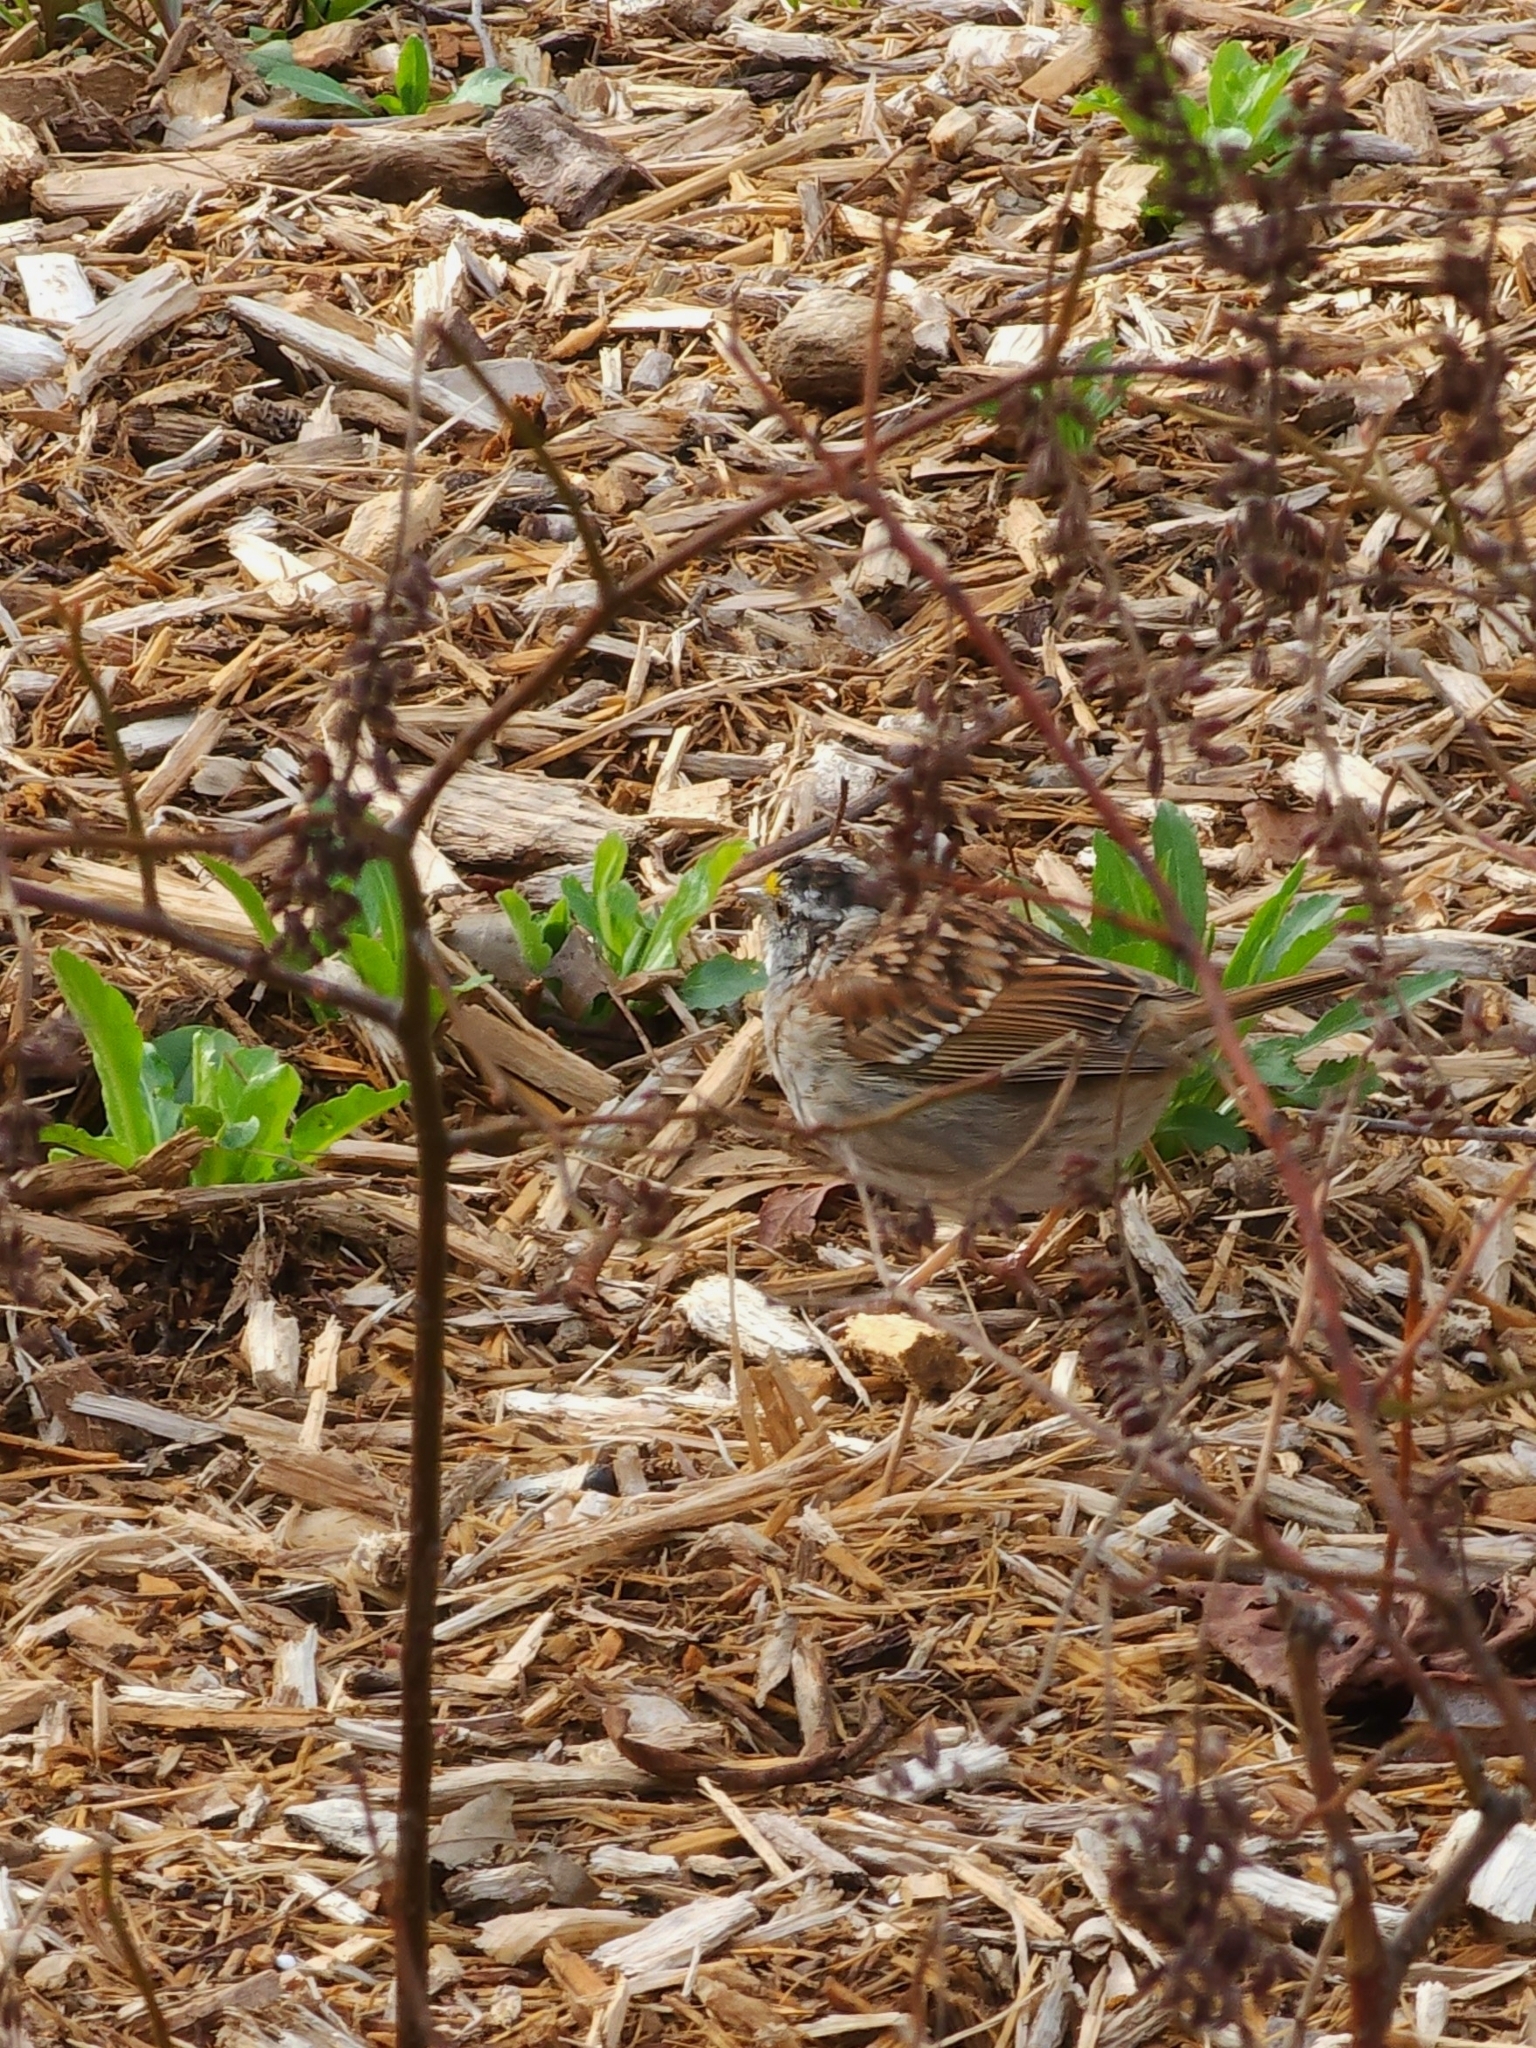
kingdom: Animalia
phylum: Chordata
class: Aves
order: Passeriformes
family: Passerellidae
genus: Zonotrichia
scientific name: Zonotrichia albicollis
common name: White-throated sparrow
